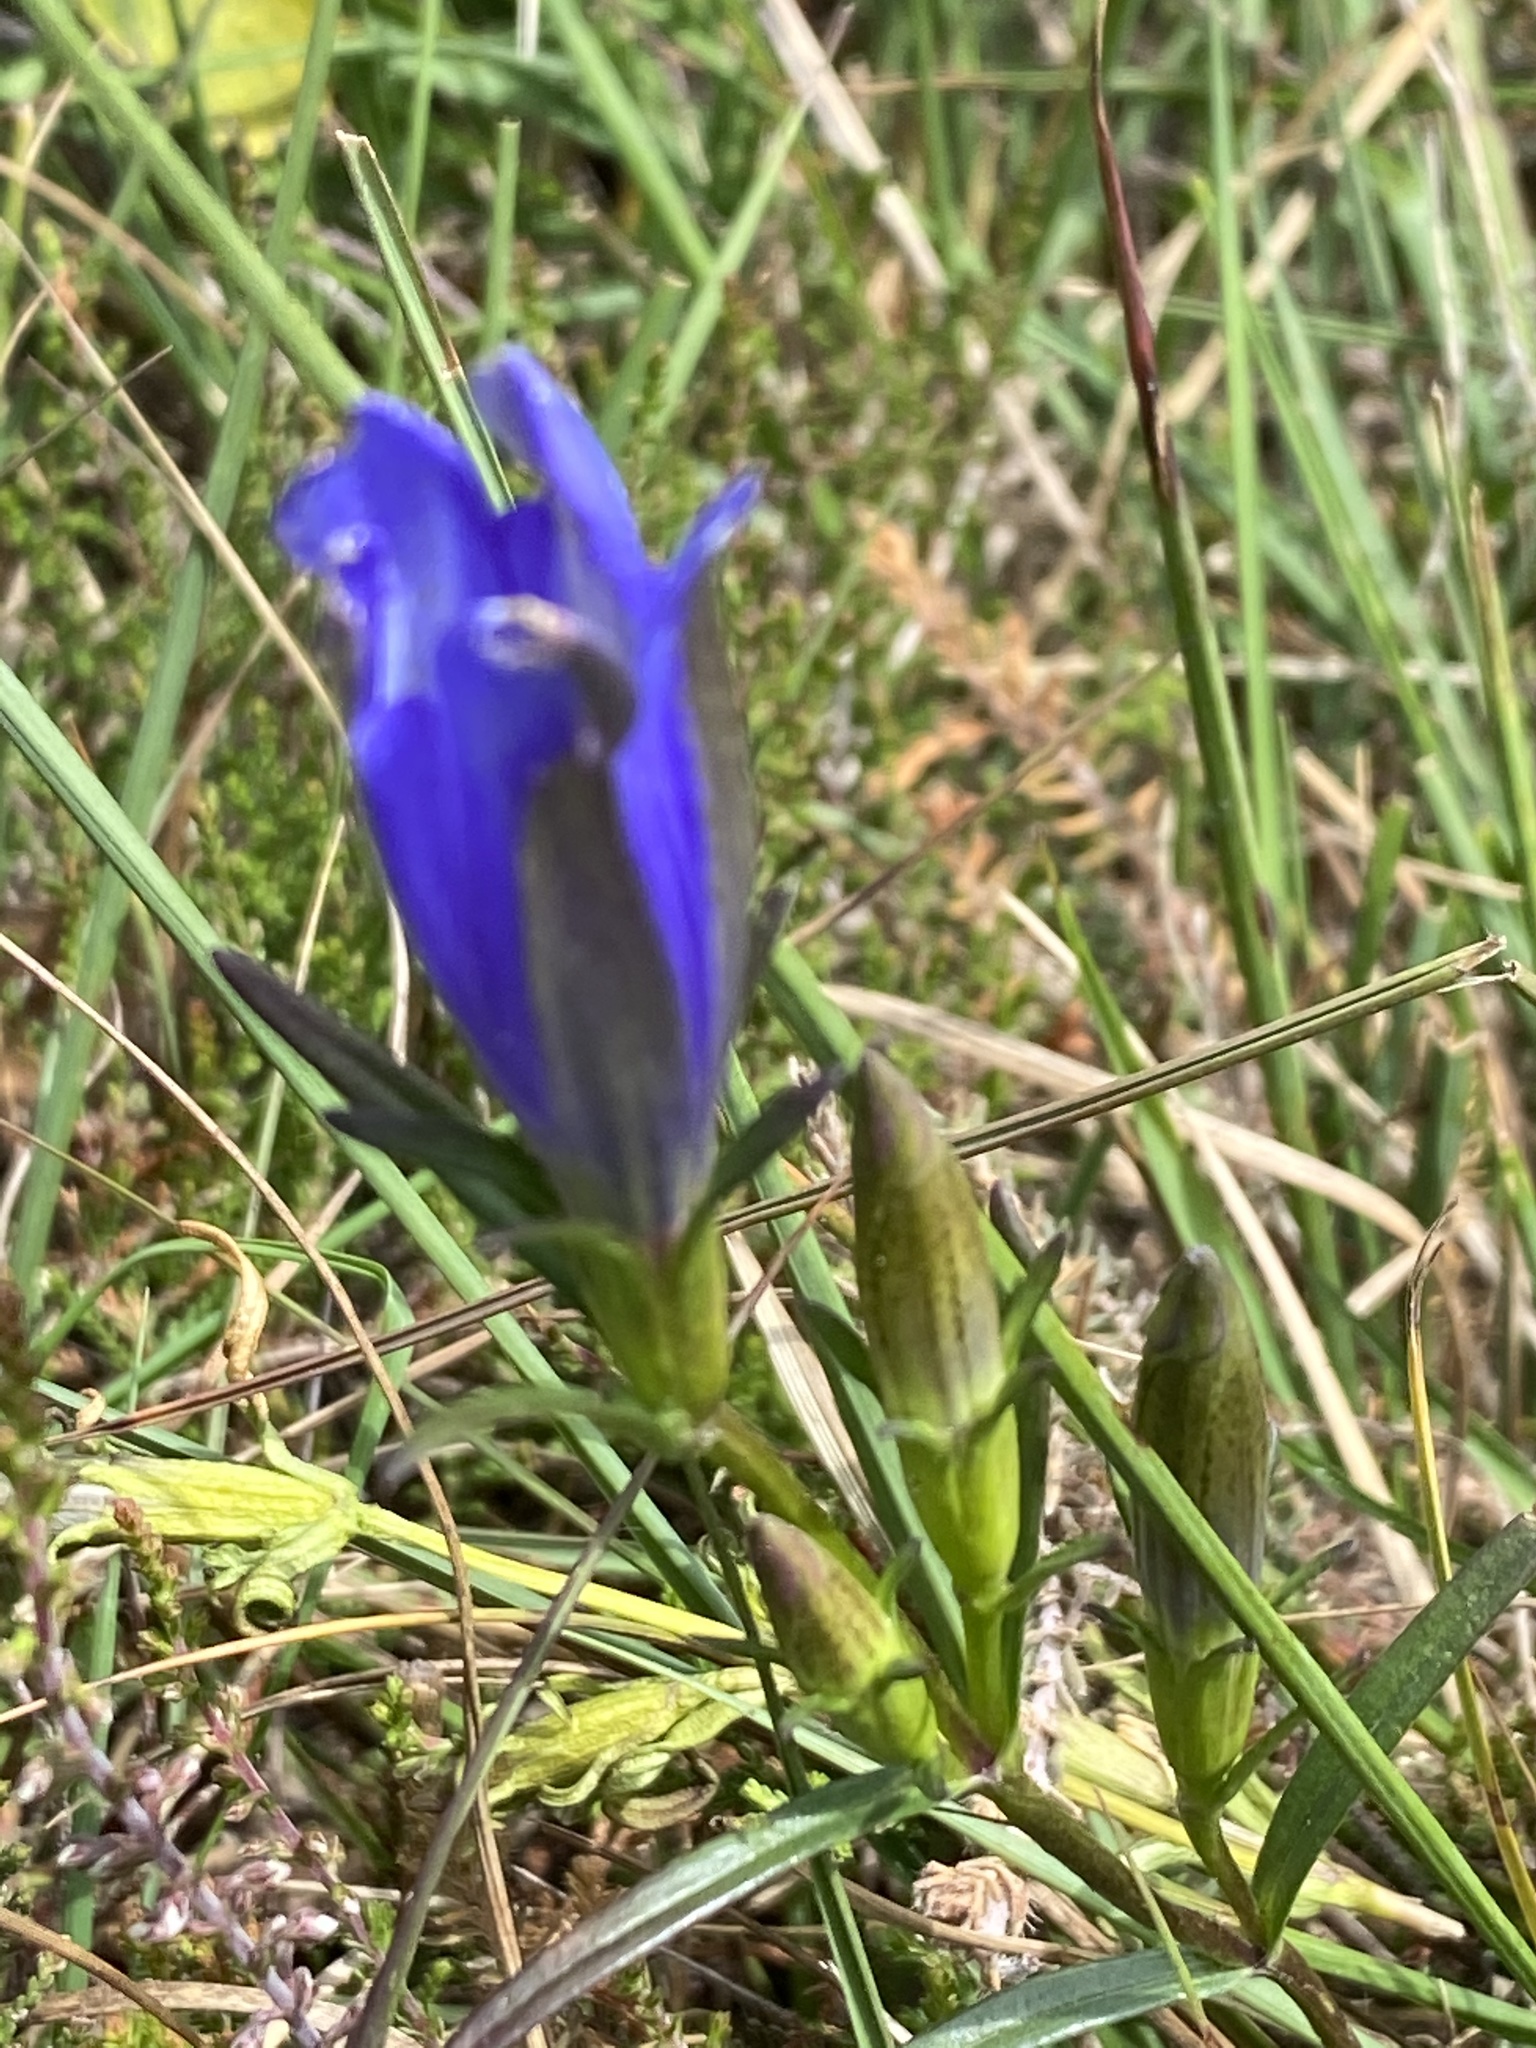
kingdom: Plantae
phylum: Tracheophyta
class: Magnoliopsida
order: Gentianales
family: Gentianaceae
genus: Gentiana
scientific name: Gentiana pneumonanthe
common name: Marsh gentian
